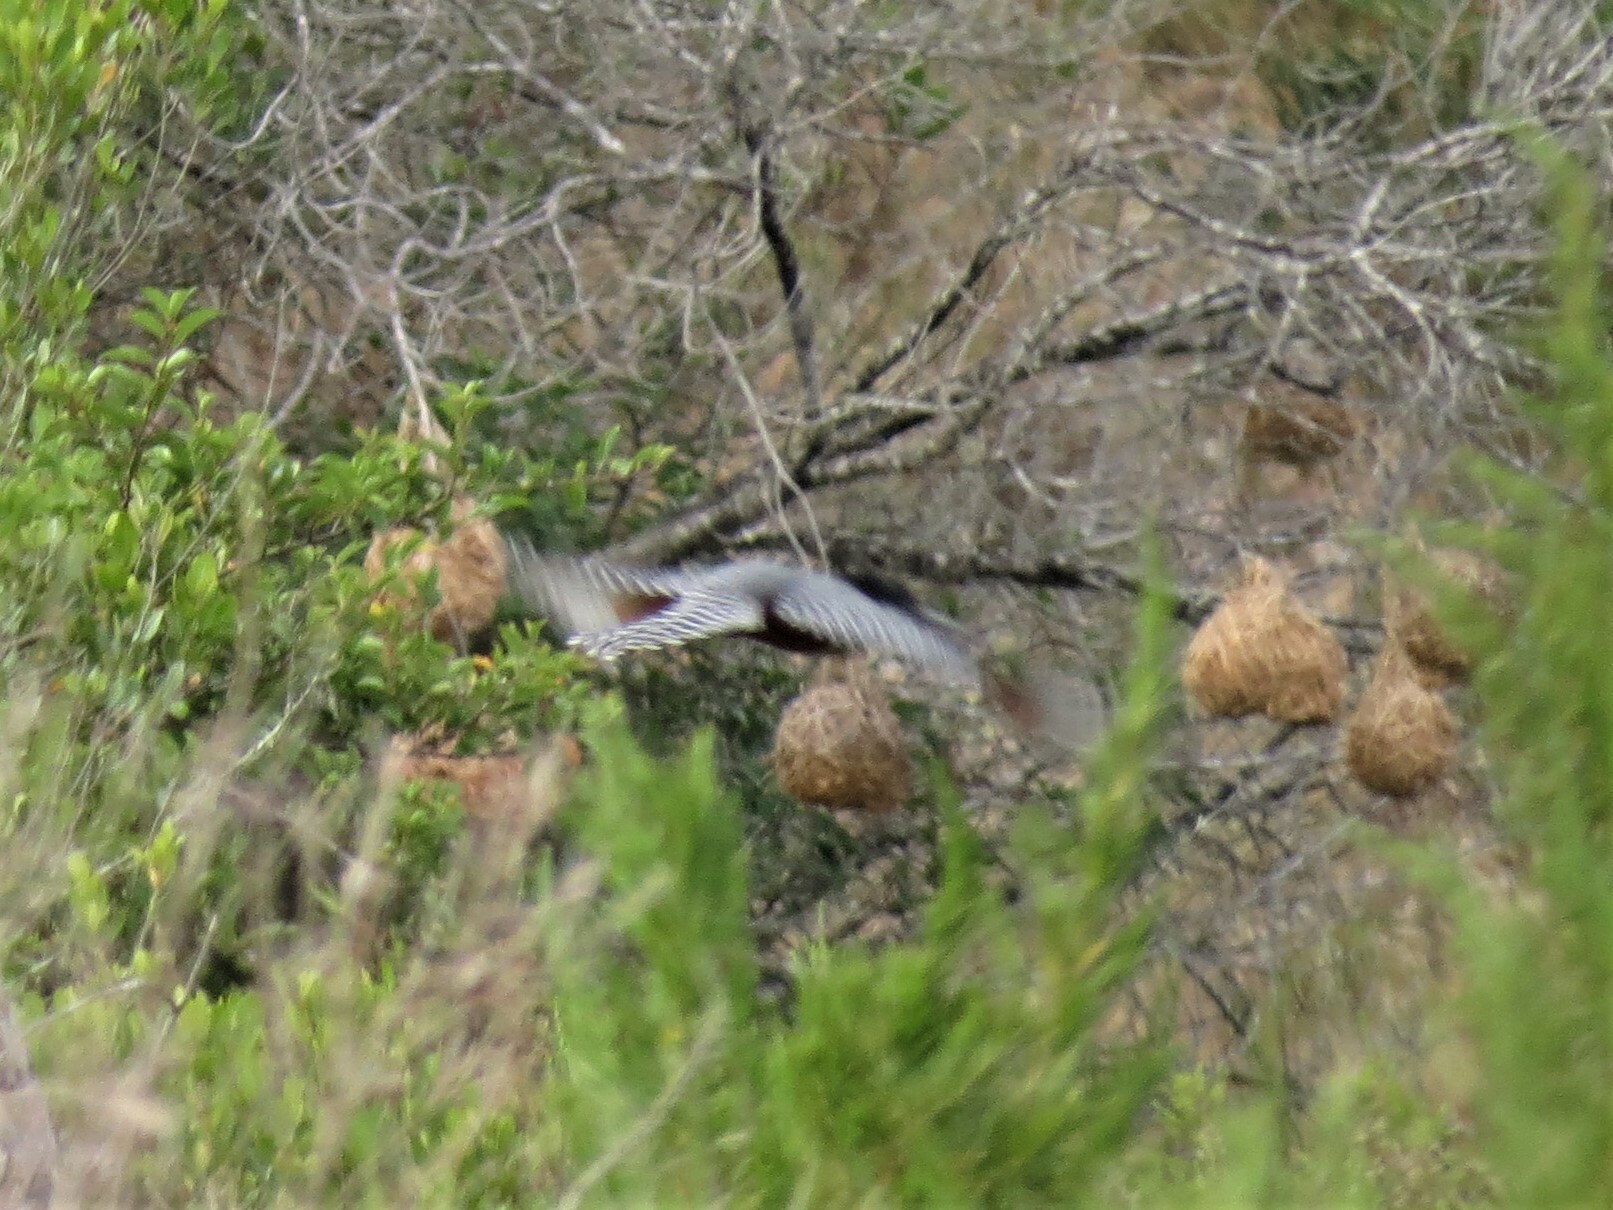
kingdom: Animalia
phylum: Chordata
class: Aves
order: Coraciiformes
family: Alcedinidae
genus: Megaceryle
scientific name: Megaceryle maxima
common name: Giant kingfisher
